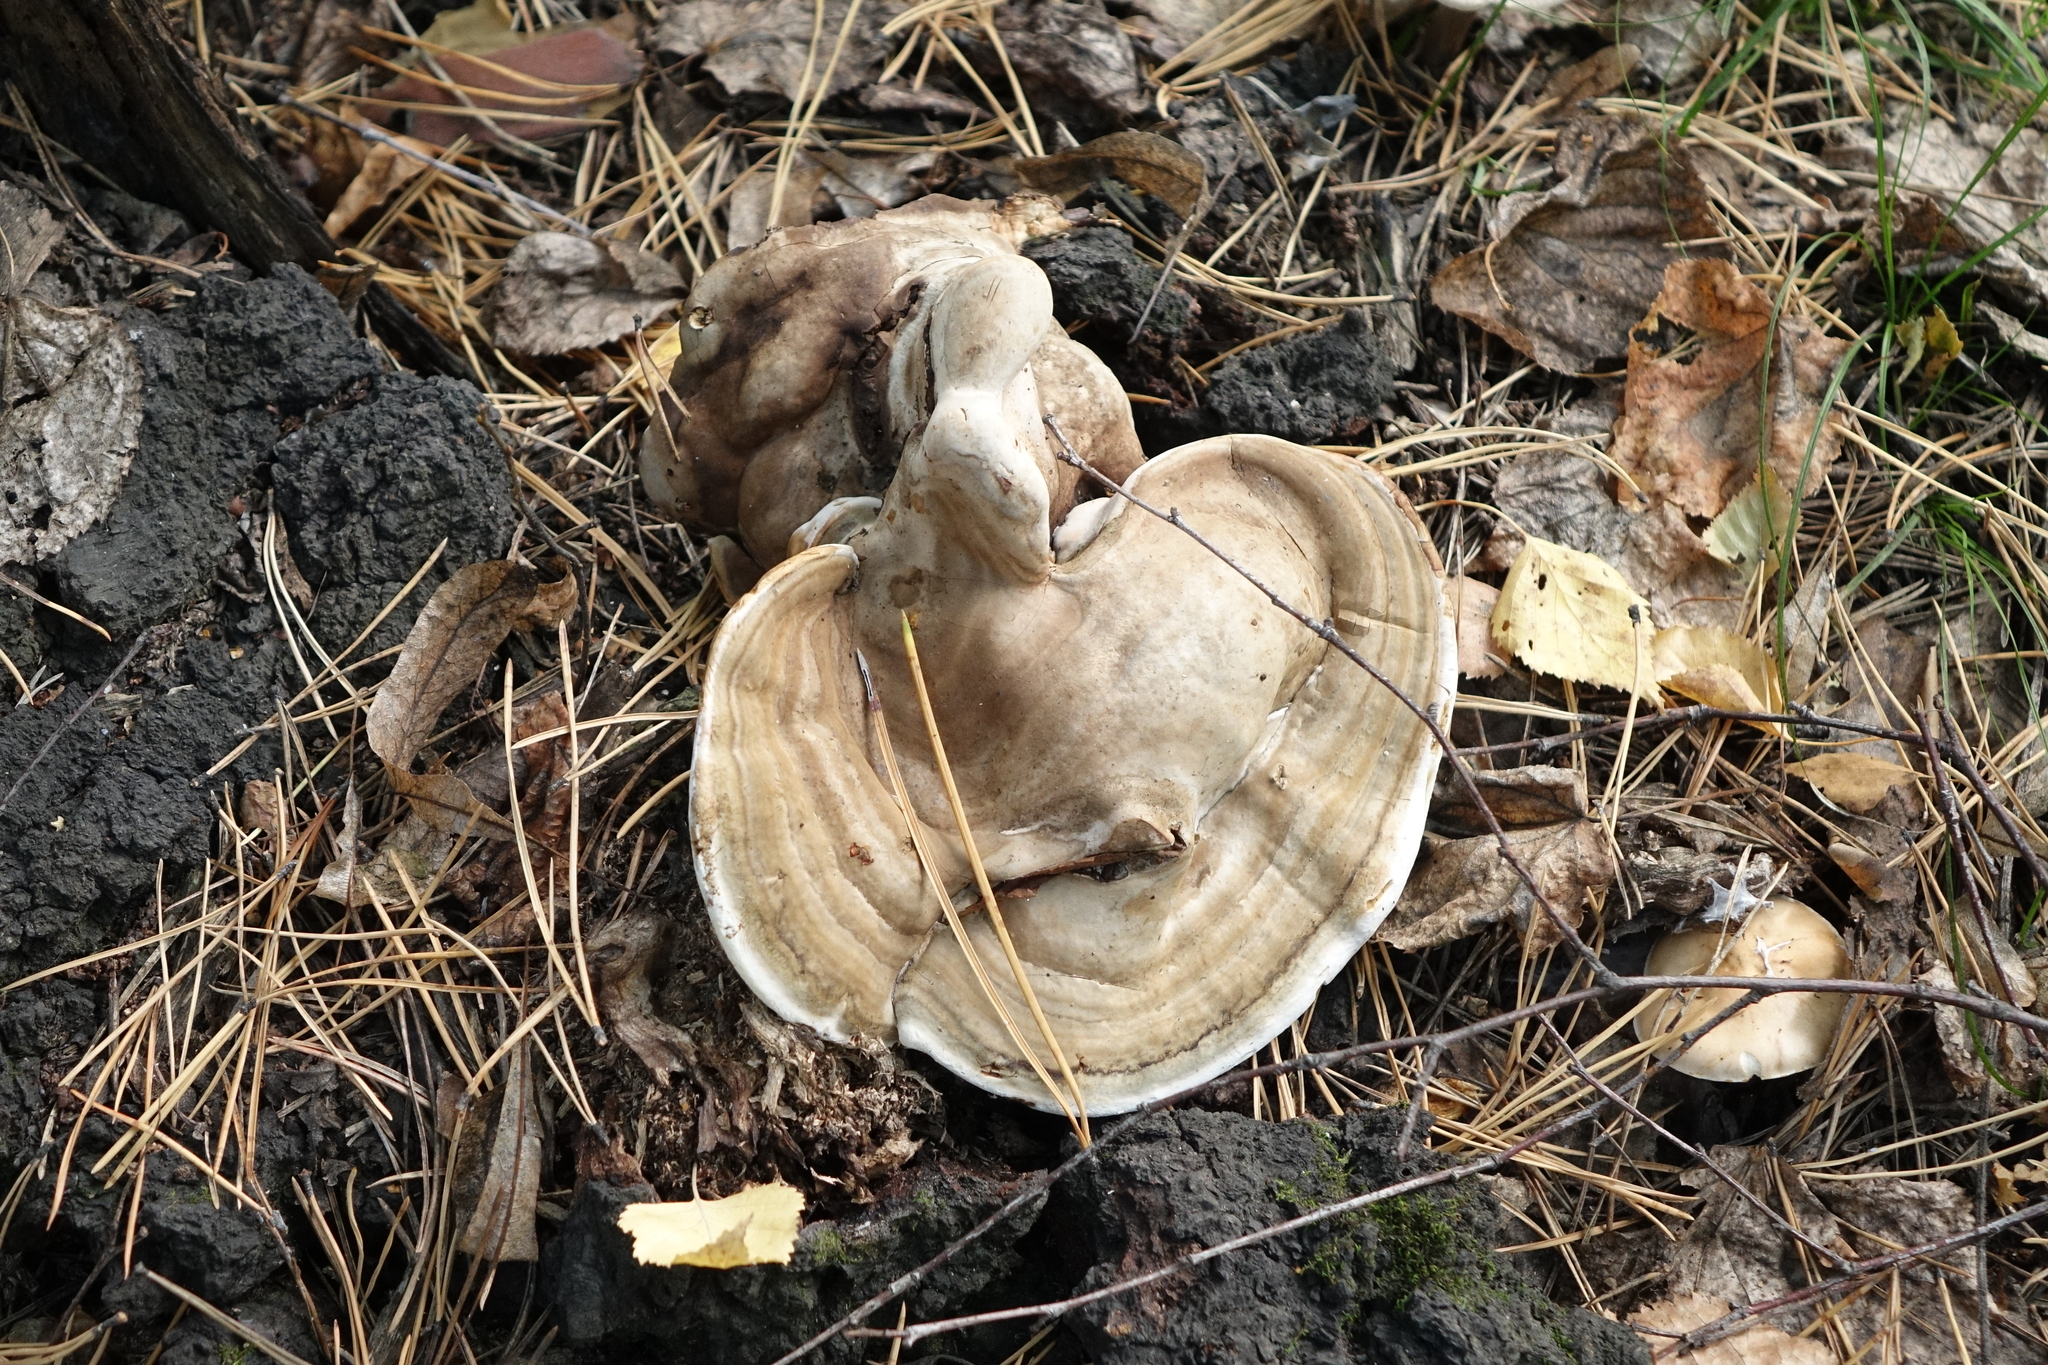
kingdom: Fungi
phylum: Basidiomycota
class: Agaricomycetes
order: Polyporales
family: Polyporaceae
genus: Ganoderma
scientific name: Ganoderma applanatum
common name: Artist's bracket
